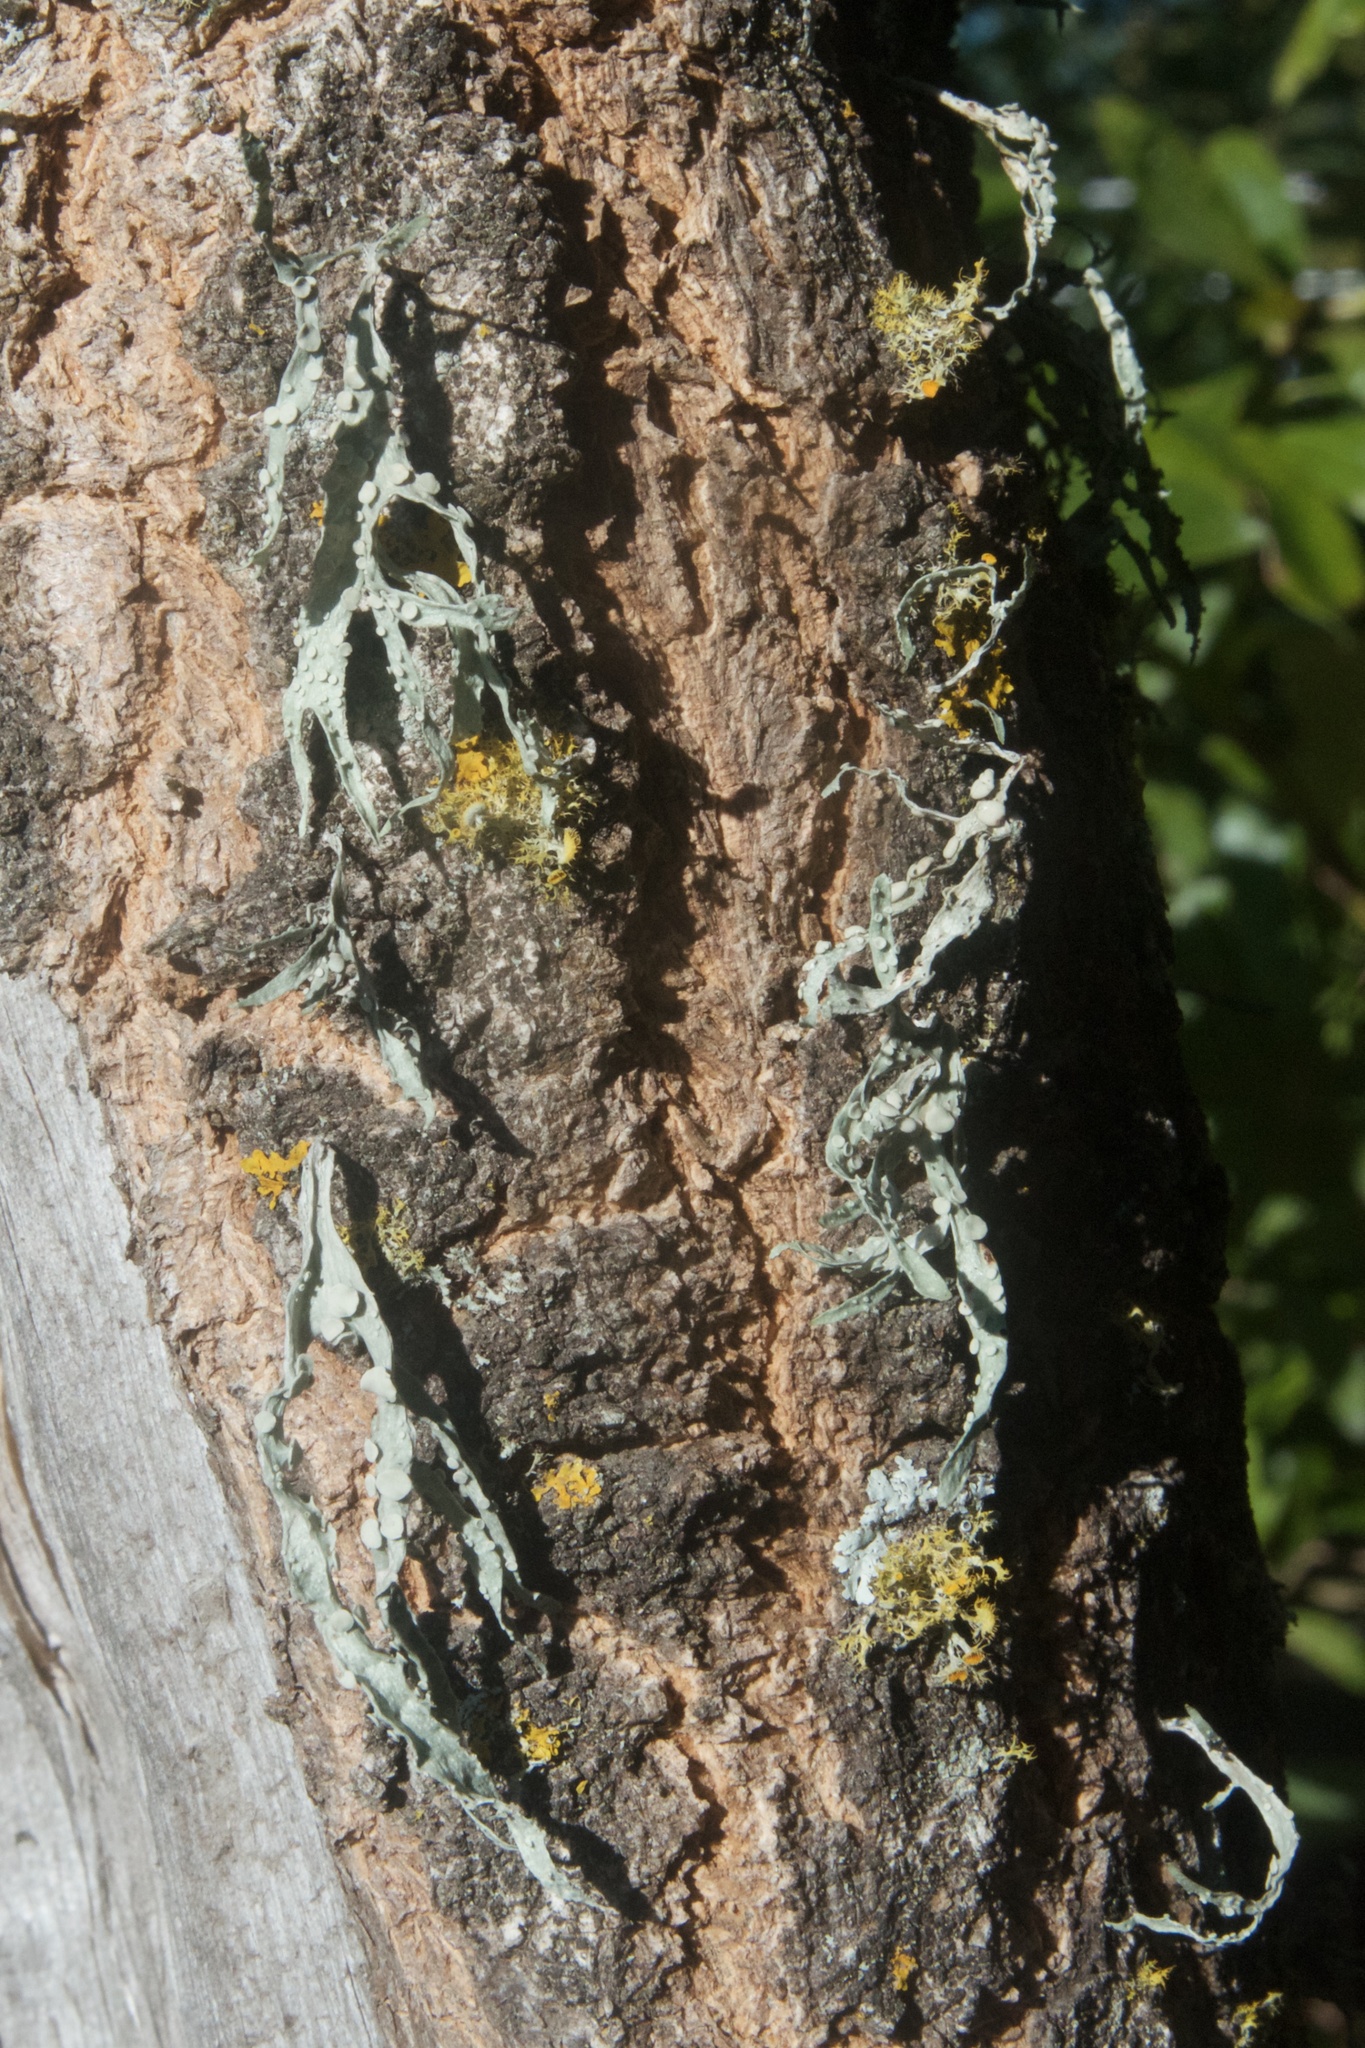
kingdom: Fungi
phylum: Ascomycota
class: Lecanoromycetes
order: Lecanorales
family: Ramalinaceae
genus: Ramalina
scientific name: Ramalina celastri
